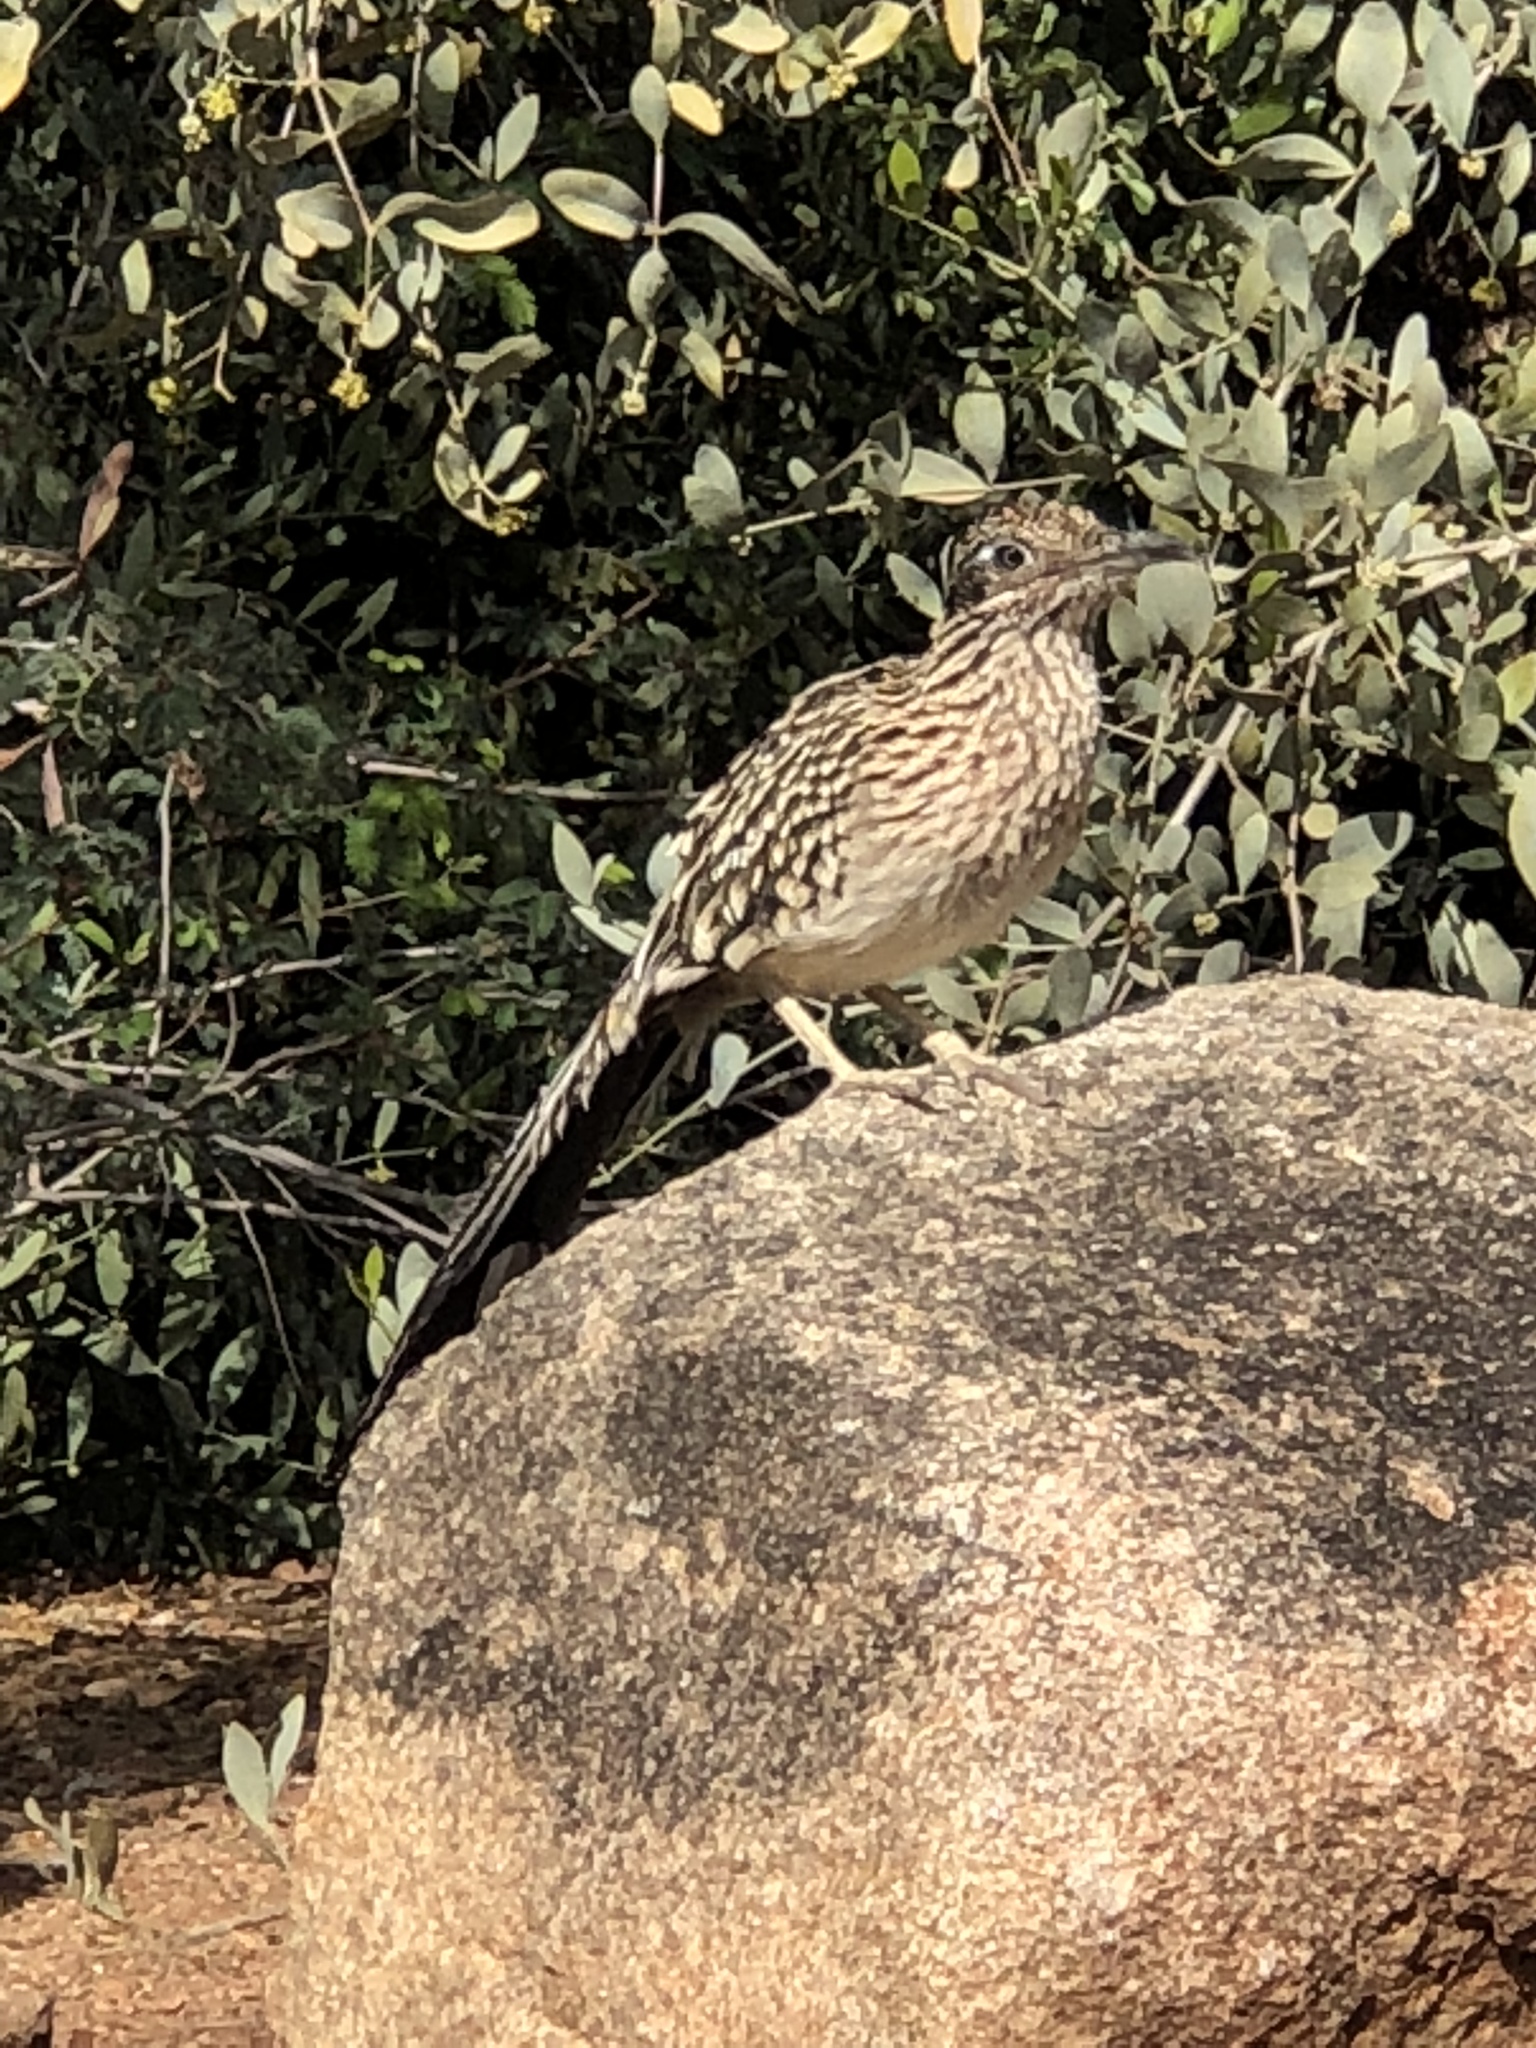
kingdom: Animalia
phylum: Chordata
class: Aves
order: Cuculiformes
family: Cuculidae
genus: Geococcyx
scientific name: Geococcyx californianus
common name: Greater roadrunner
